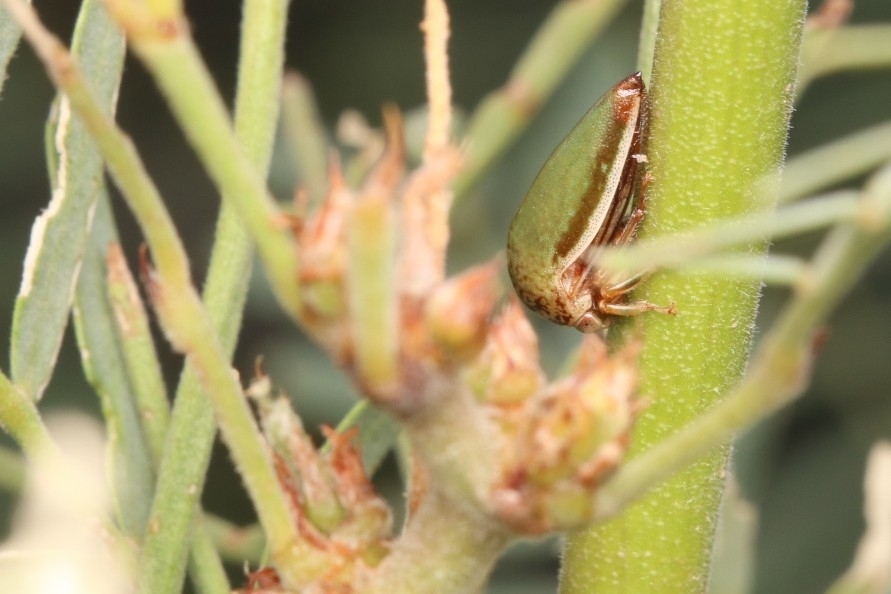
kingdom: Animalia
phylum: Arthropoda
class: Insecta
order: Hemiptera
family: Membracidae
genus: Stictopelta
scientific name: Stictopelta marmorata
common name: Treehopper
